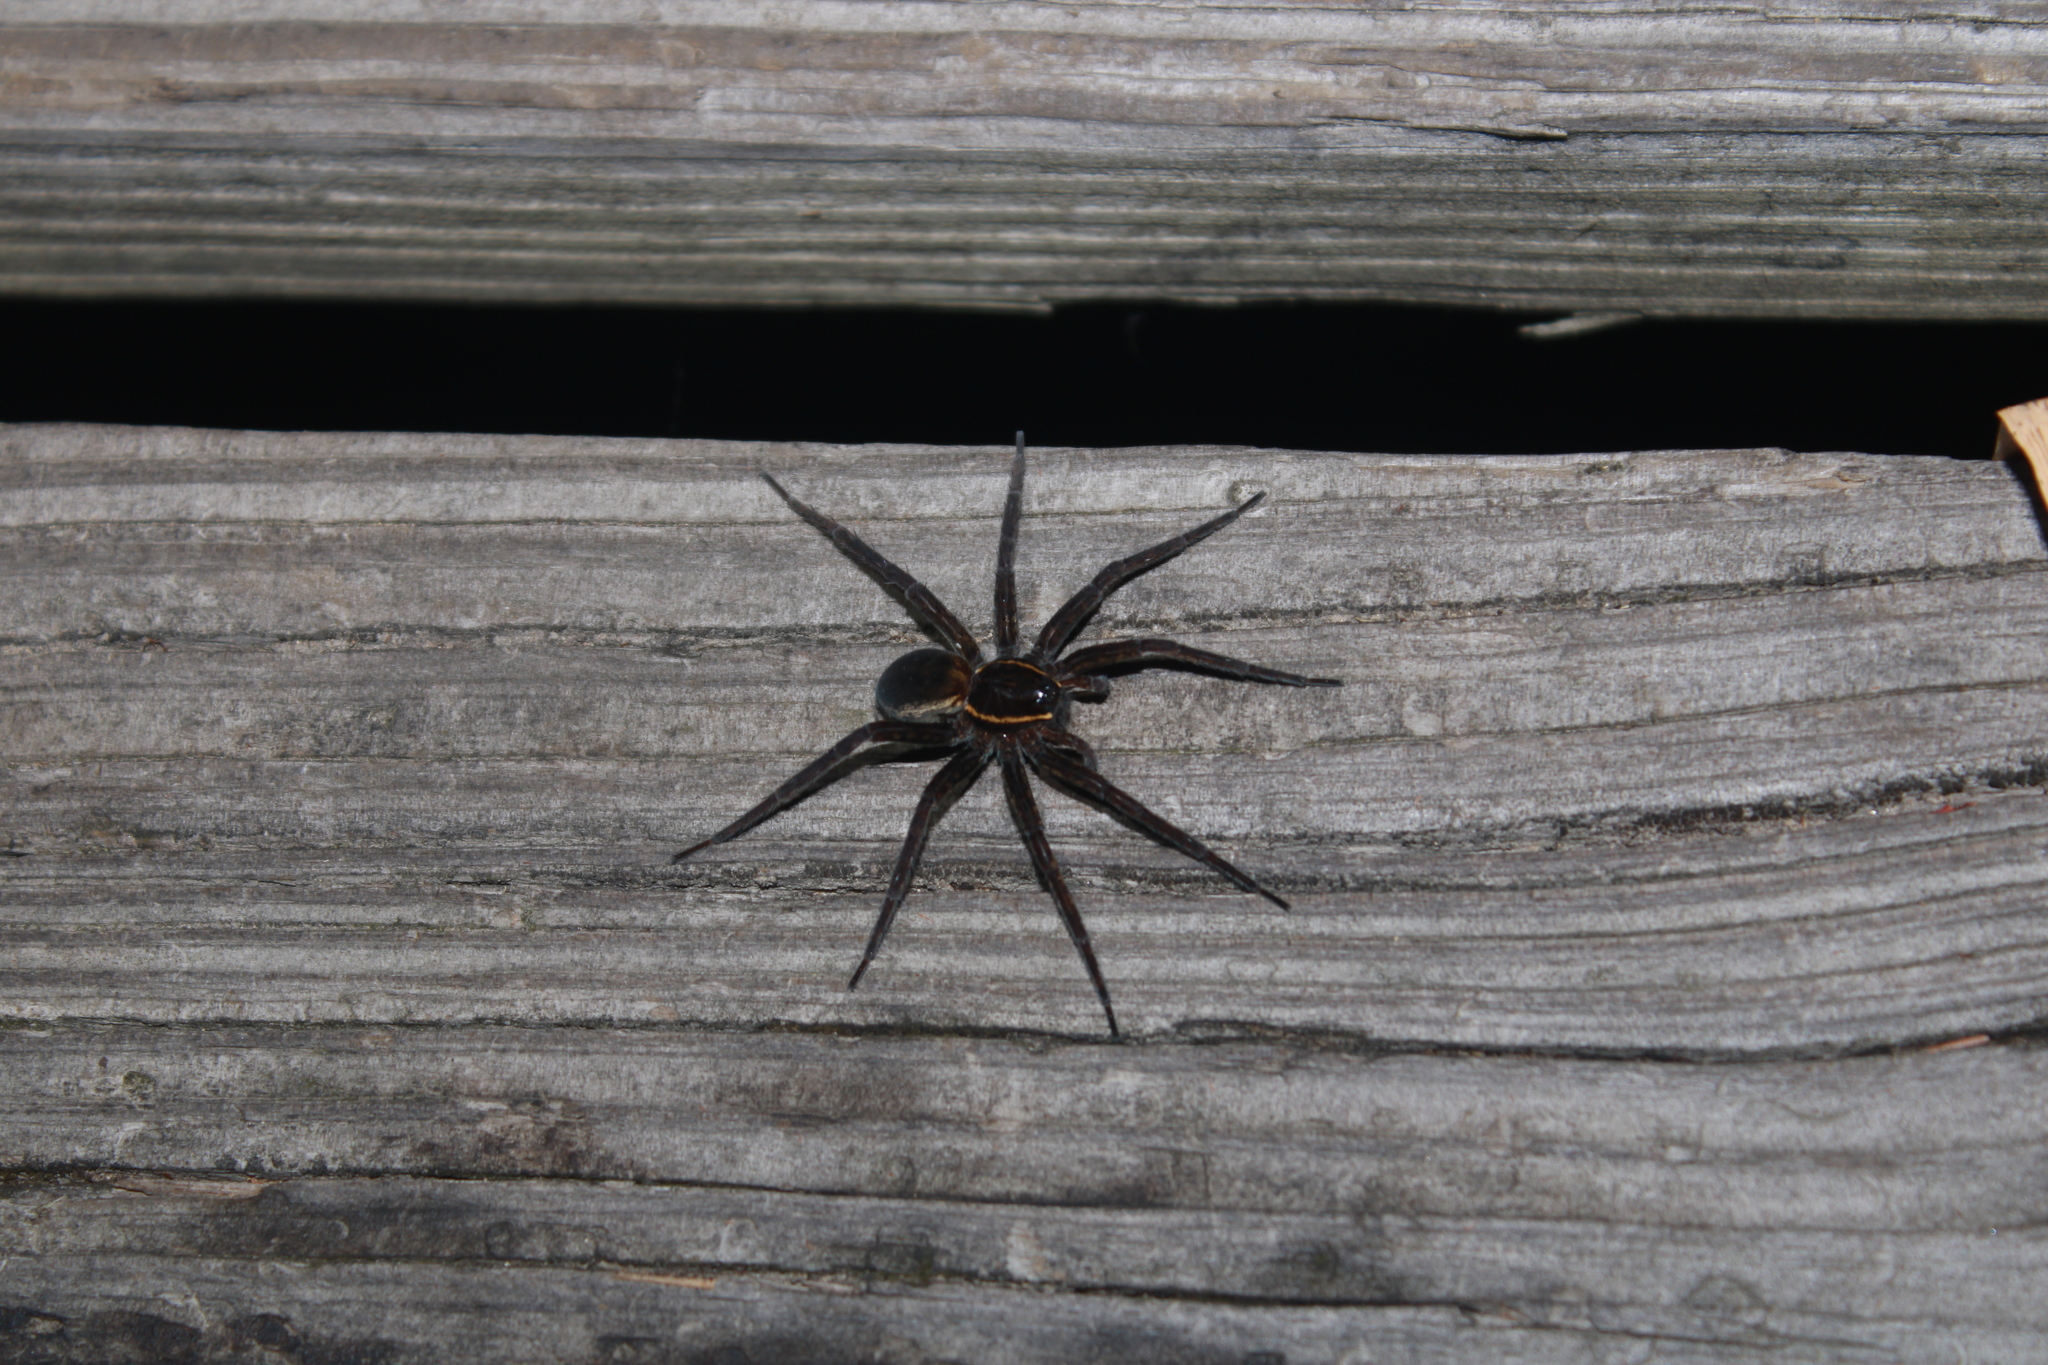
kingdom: Animalia
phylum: Arthropoda
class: Arachnida
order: Araneae
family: Pisauridae
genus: Dolomedes
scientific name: Dolomedes triton
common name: Six-spotted fishing spider
